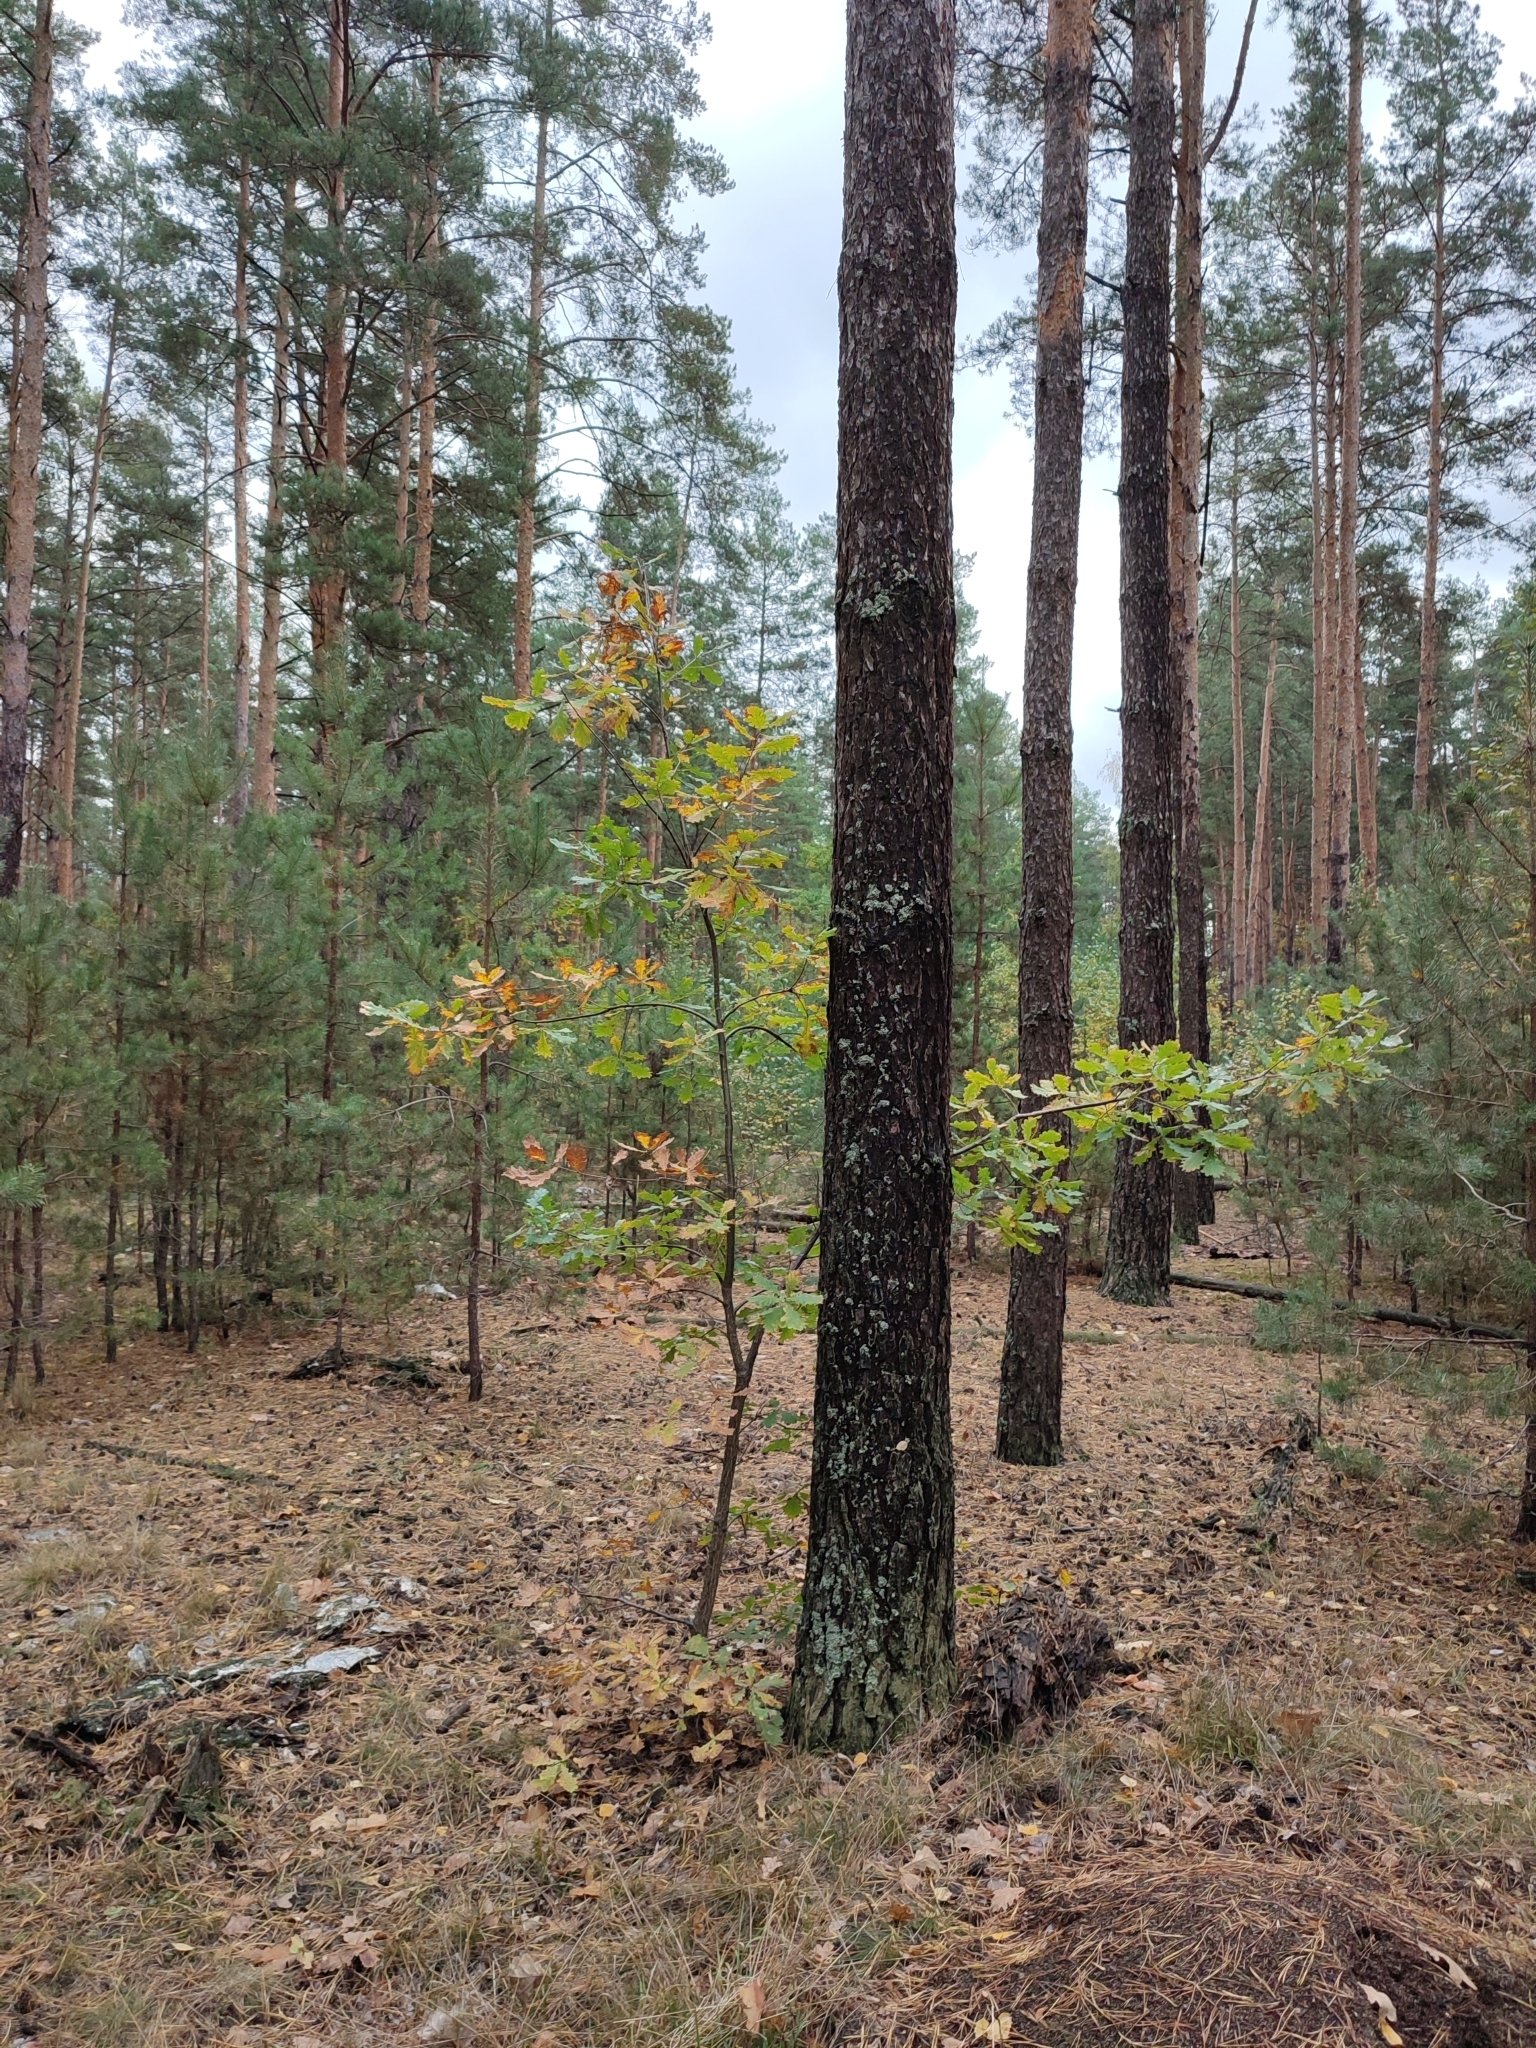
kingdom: Plantae
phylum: Tracheophyta
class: Magnoliopsida
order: Fagales
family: Fagaceae
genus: Quercus
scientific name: Quercus robur
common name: Pedunculate oak
